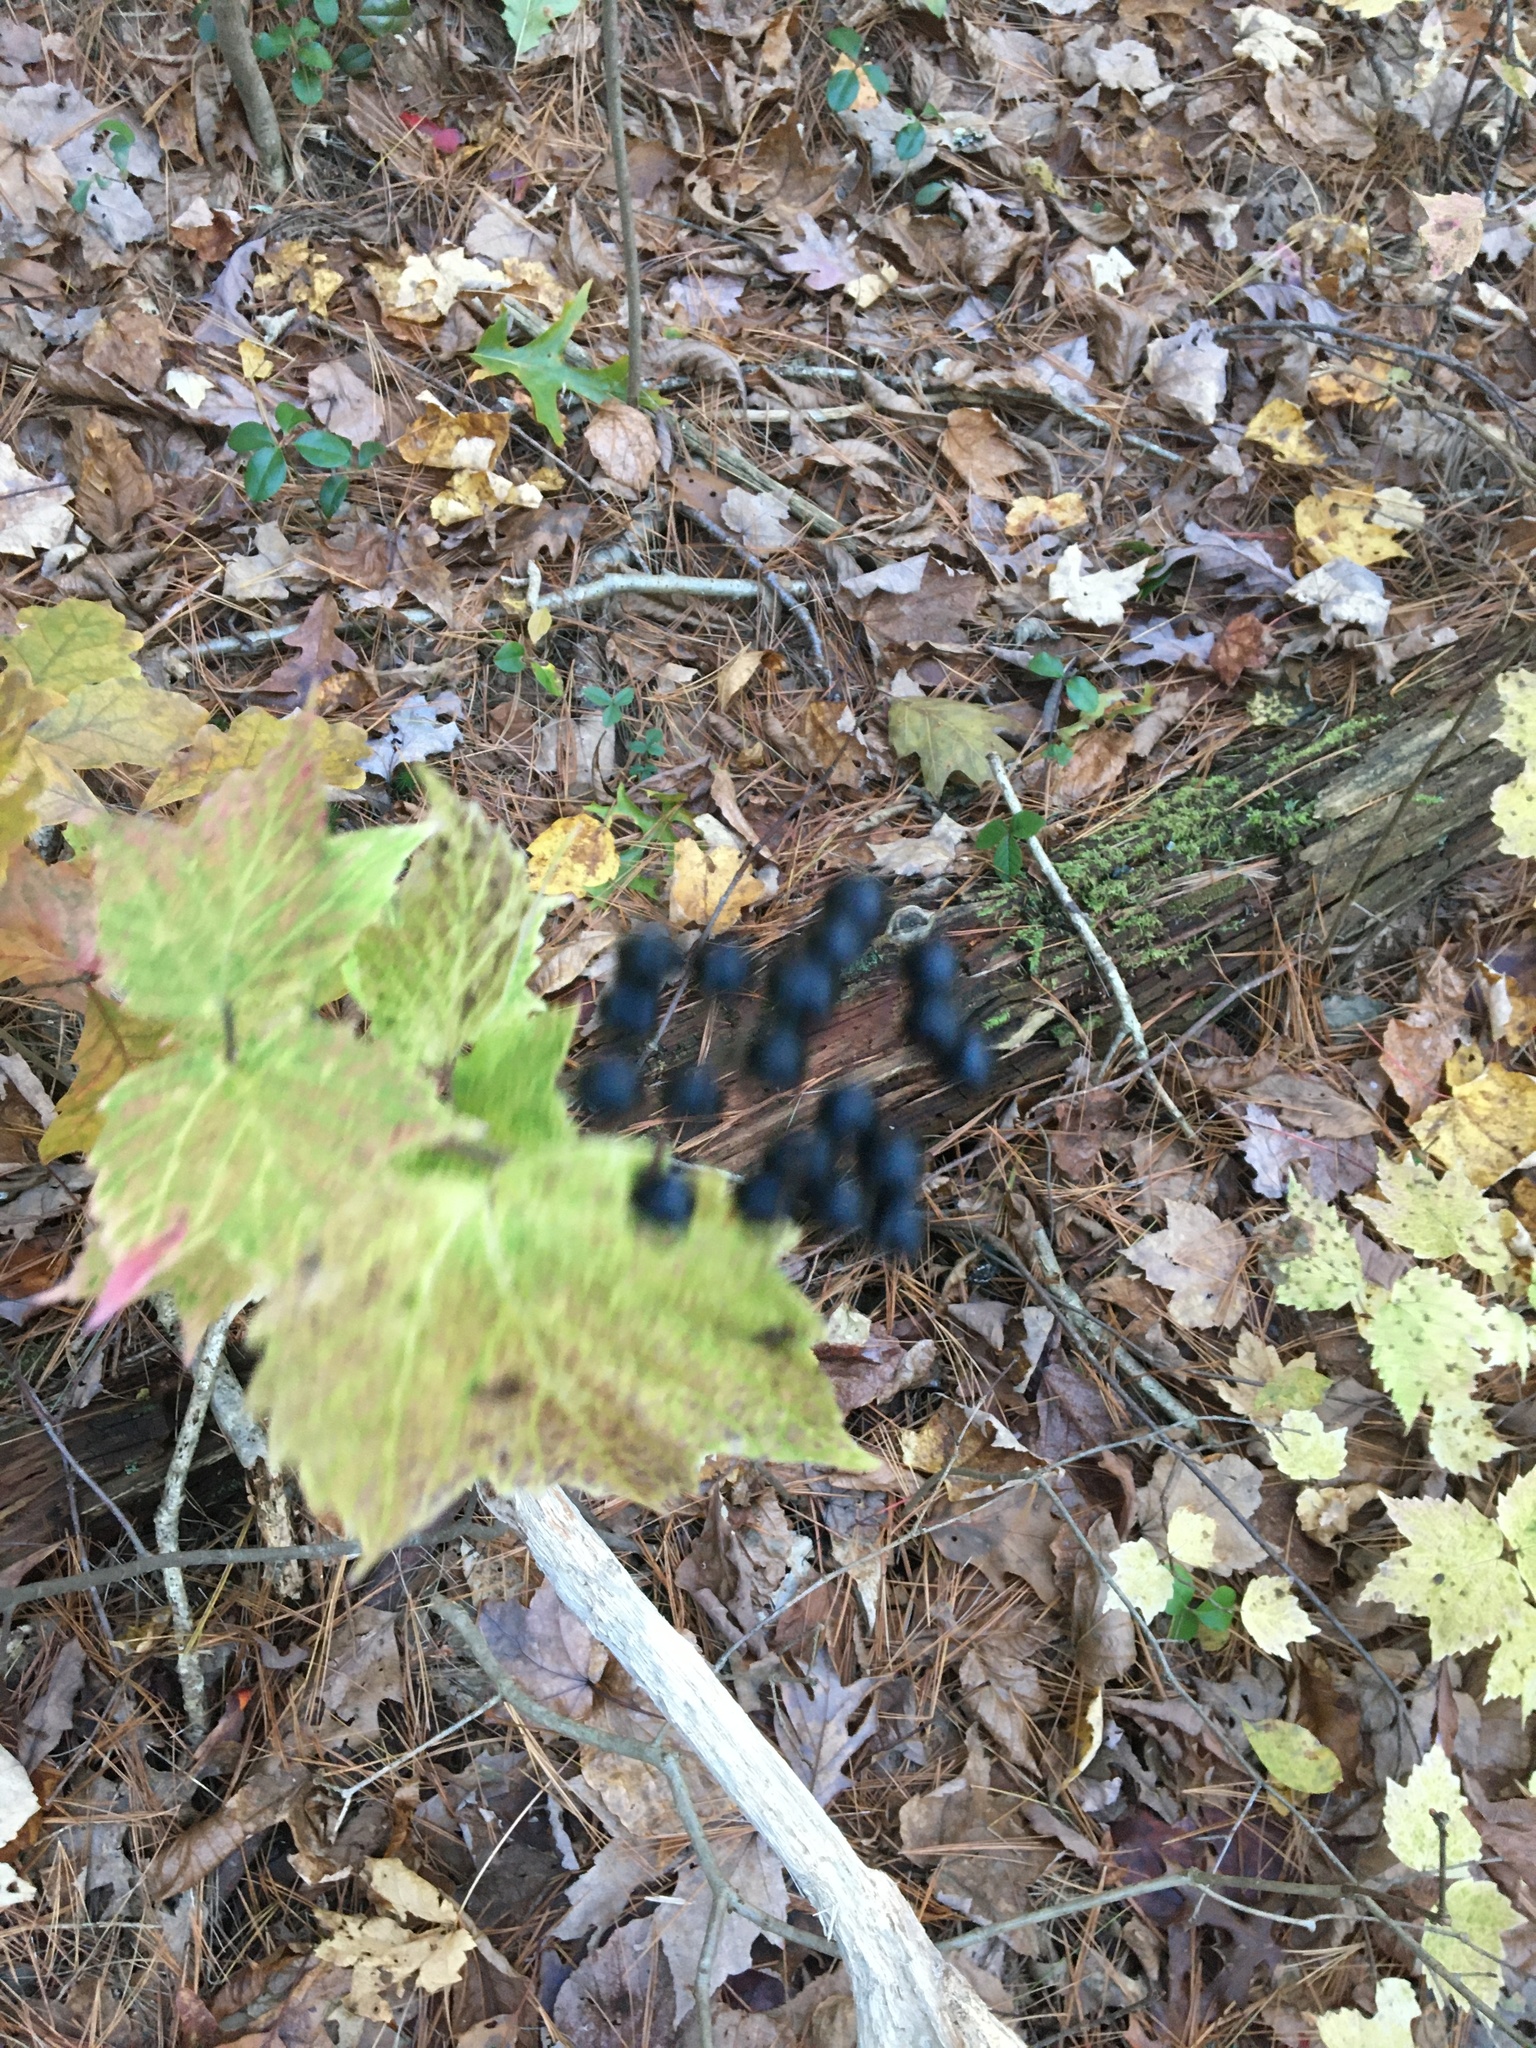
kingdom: Plantae
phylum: Tracheophyta
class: Magnoliopsida
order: Dipsacales
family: Viburnaceae
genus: Viburnum
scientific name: Viburnum acerifolium
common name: Dockmackie
